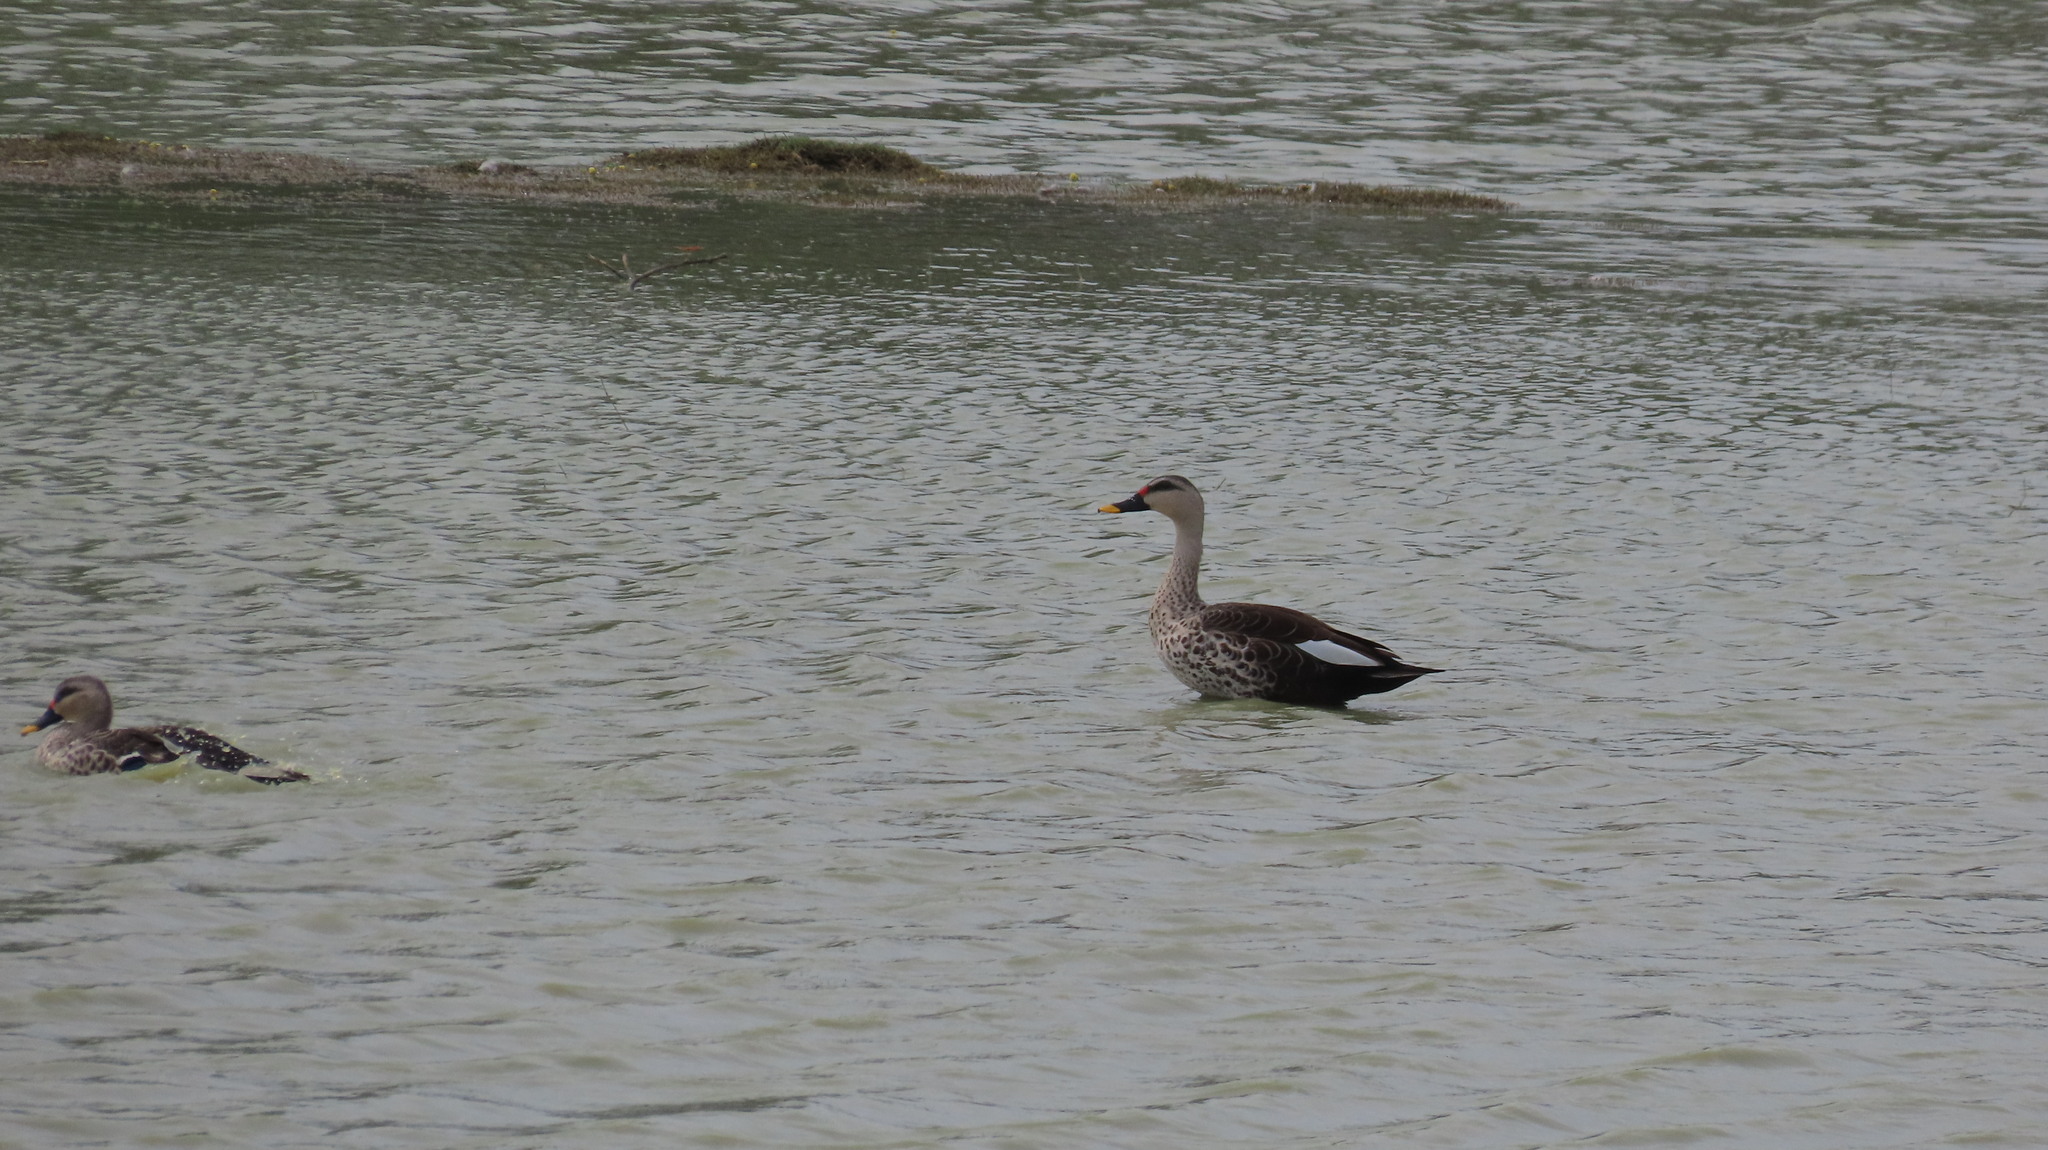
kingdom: Animalia
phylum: Chordata
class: Aves
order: Anseriformes
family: Anatidae
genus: Anas
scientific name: Anas poecilorhyncha
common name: Indian spot-billed duck
